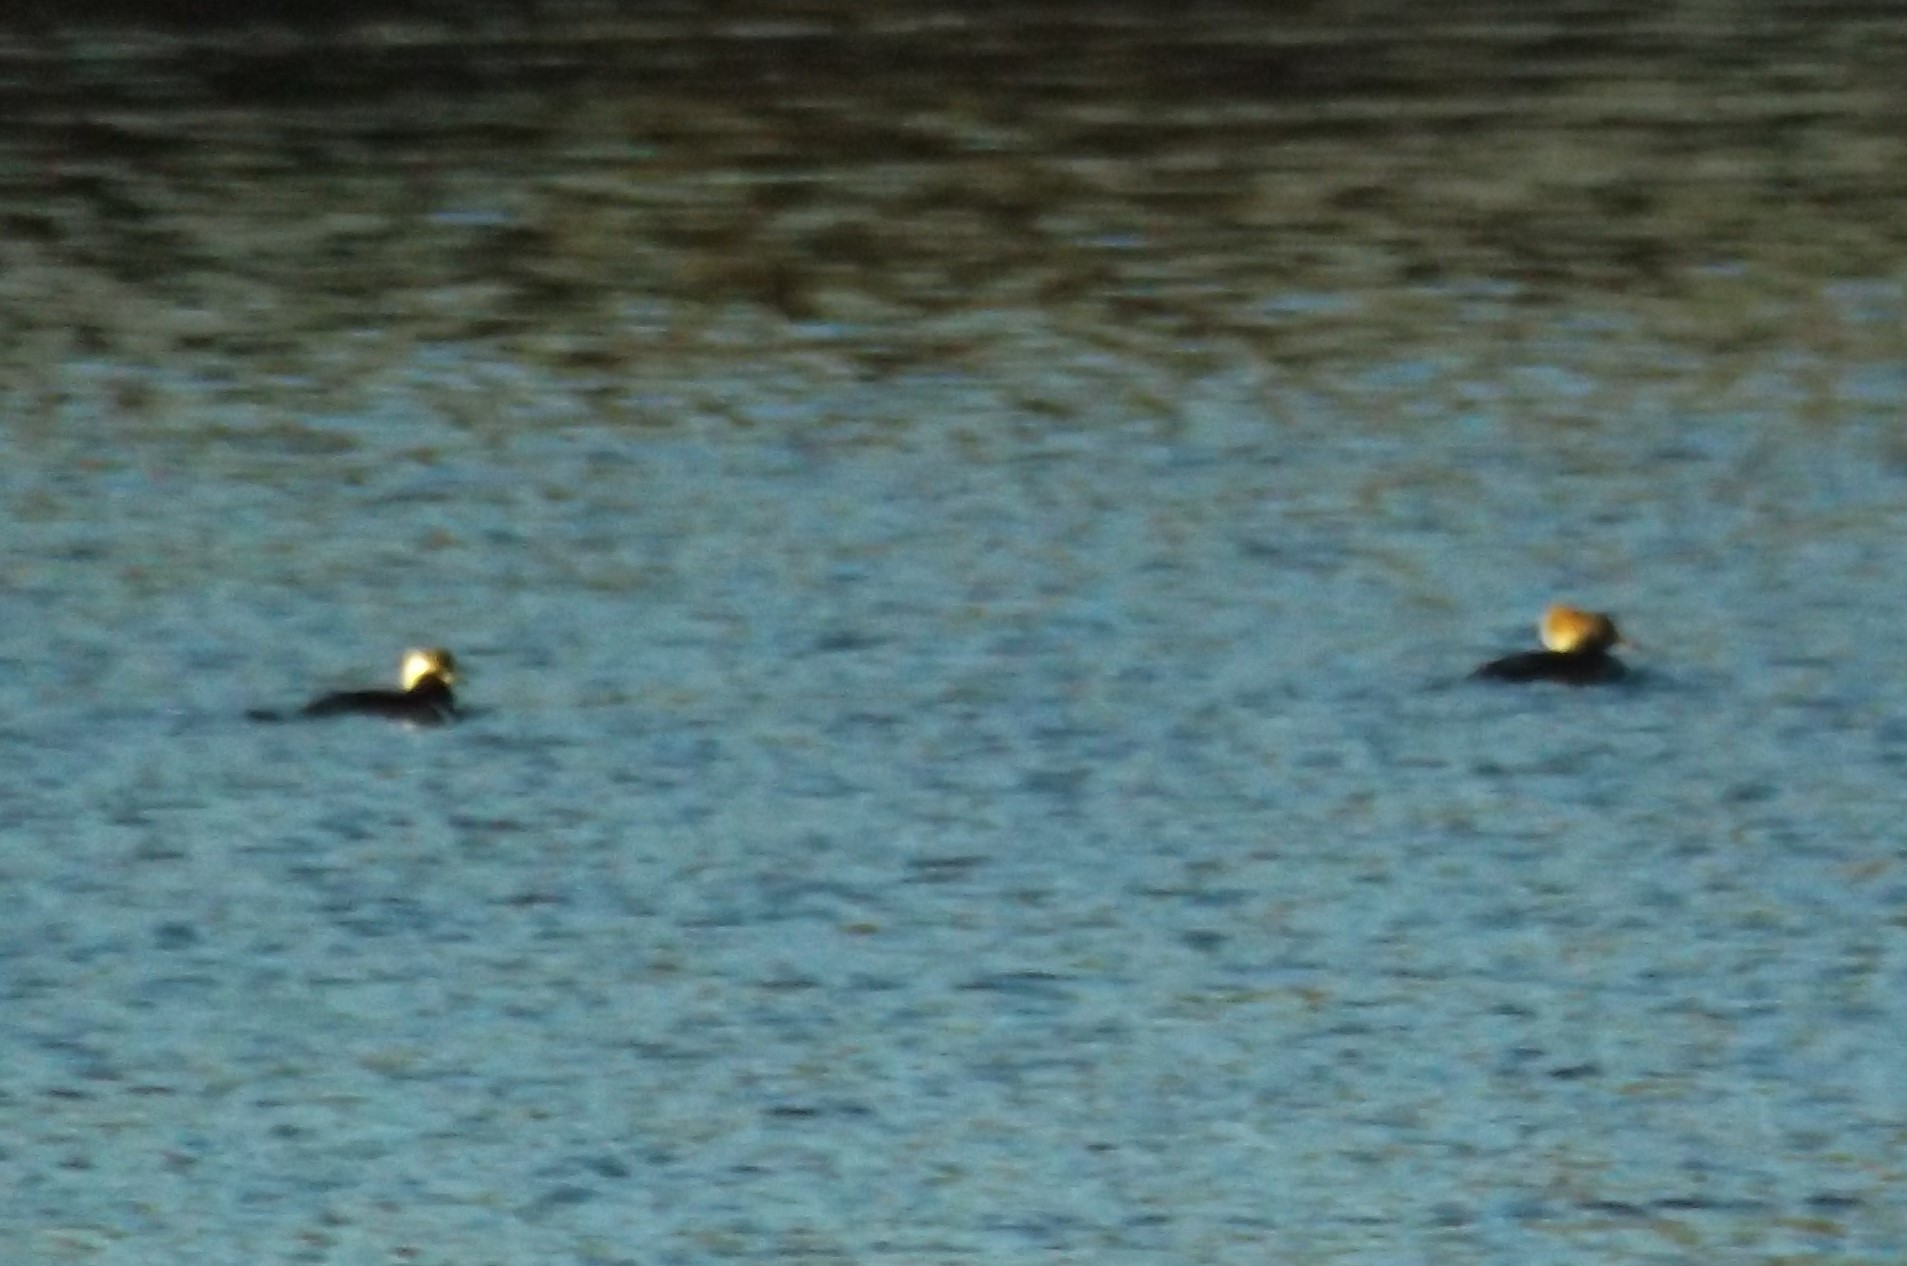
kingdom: Animalia
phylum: Chordata
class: Aves
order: Anseriformes
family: Anatidae
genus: Lophodytes
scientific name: Lophodytes cucullatus
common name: Hooded merganser
